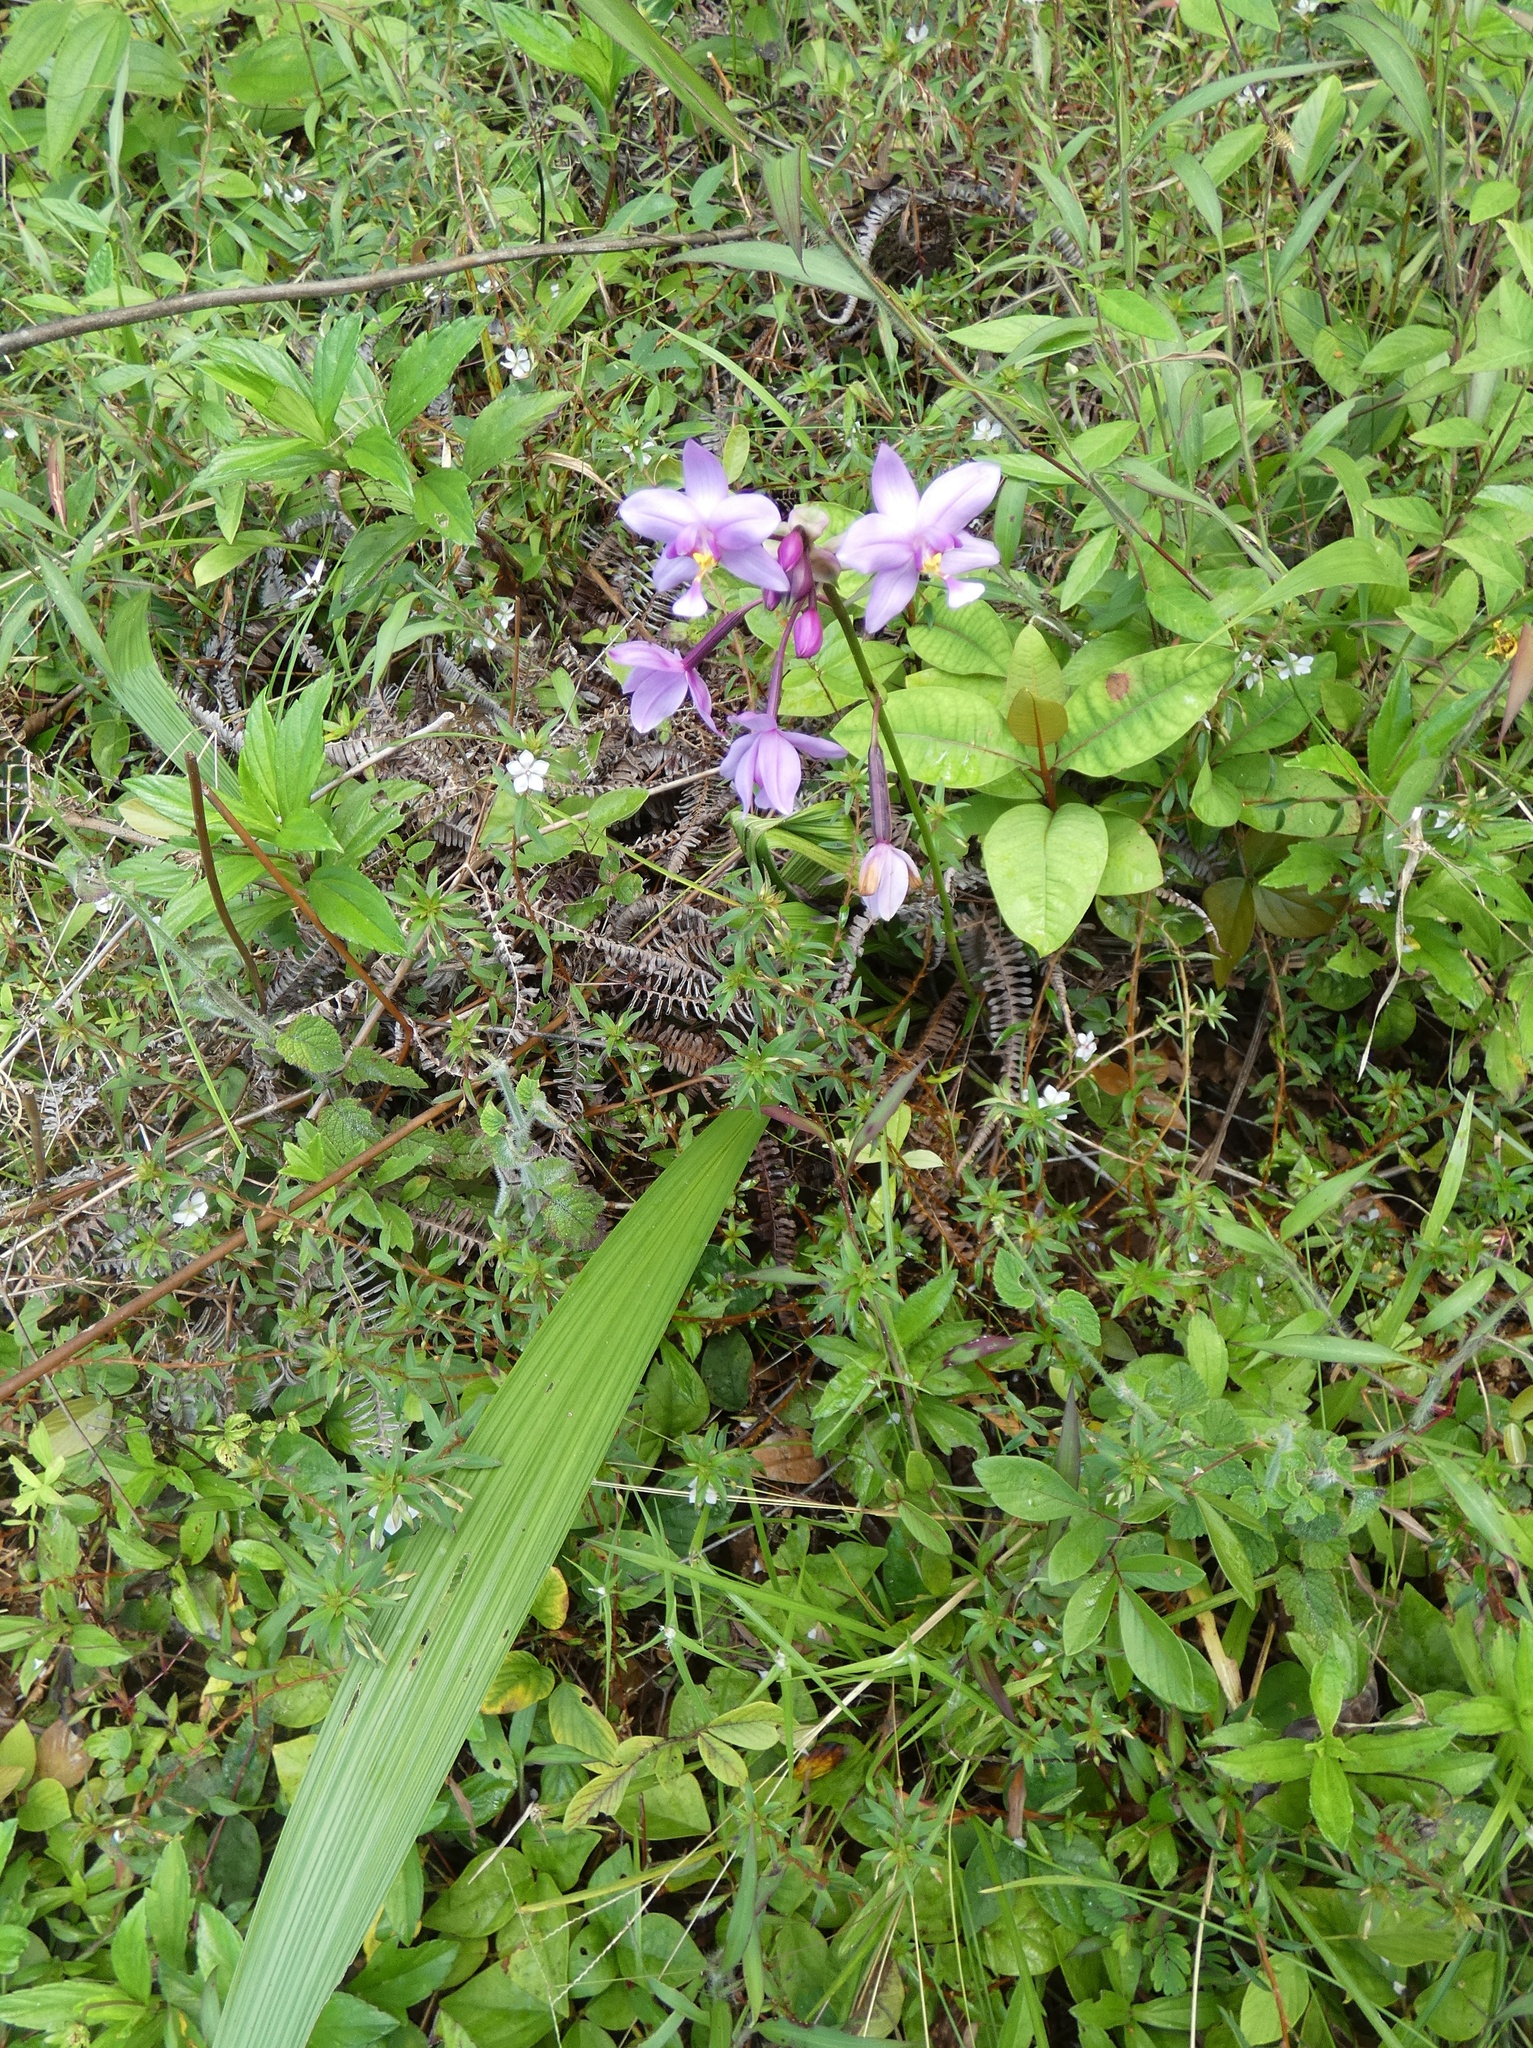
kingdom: Plantae
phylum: Tracheophyta
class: Liliopsida
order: Asparagales
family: Orchidaceae
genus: Spathoglottis
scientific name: Spathoglottis plicata
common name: Philippine ground orchid
